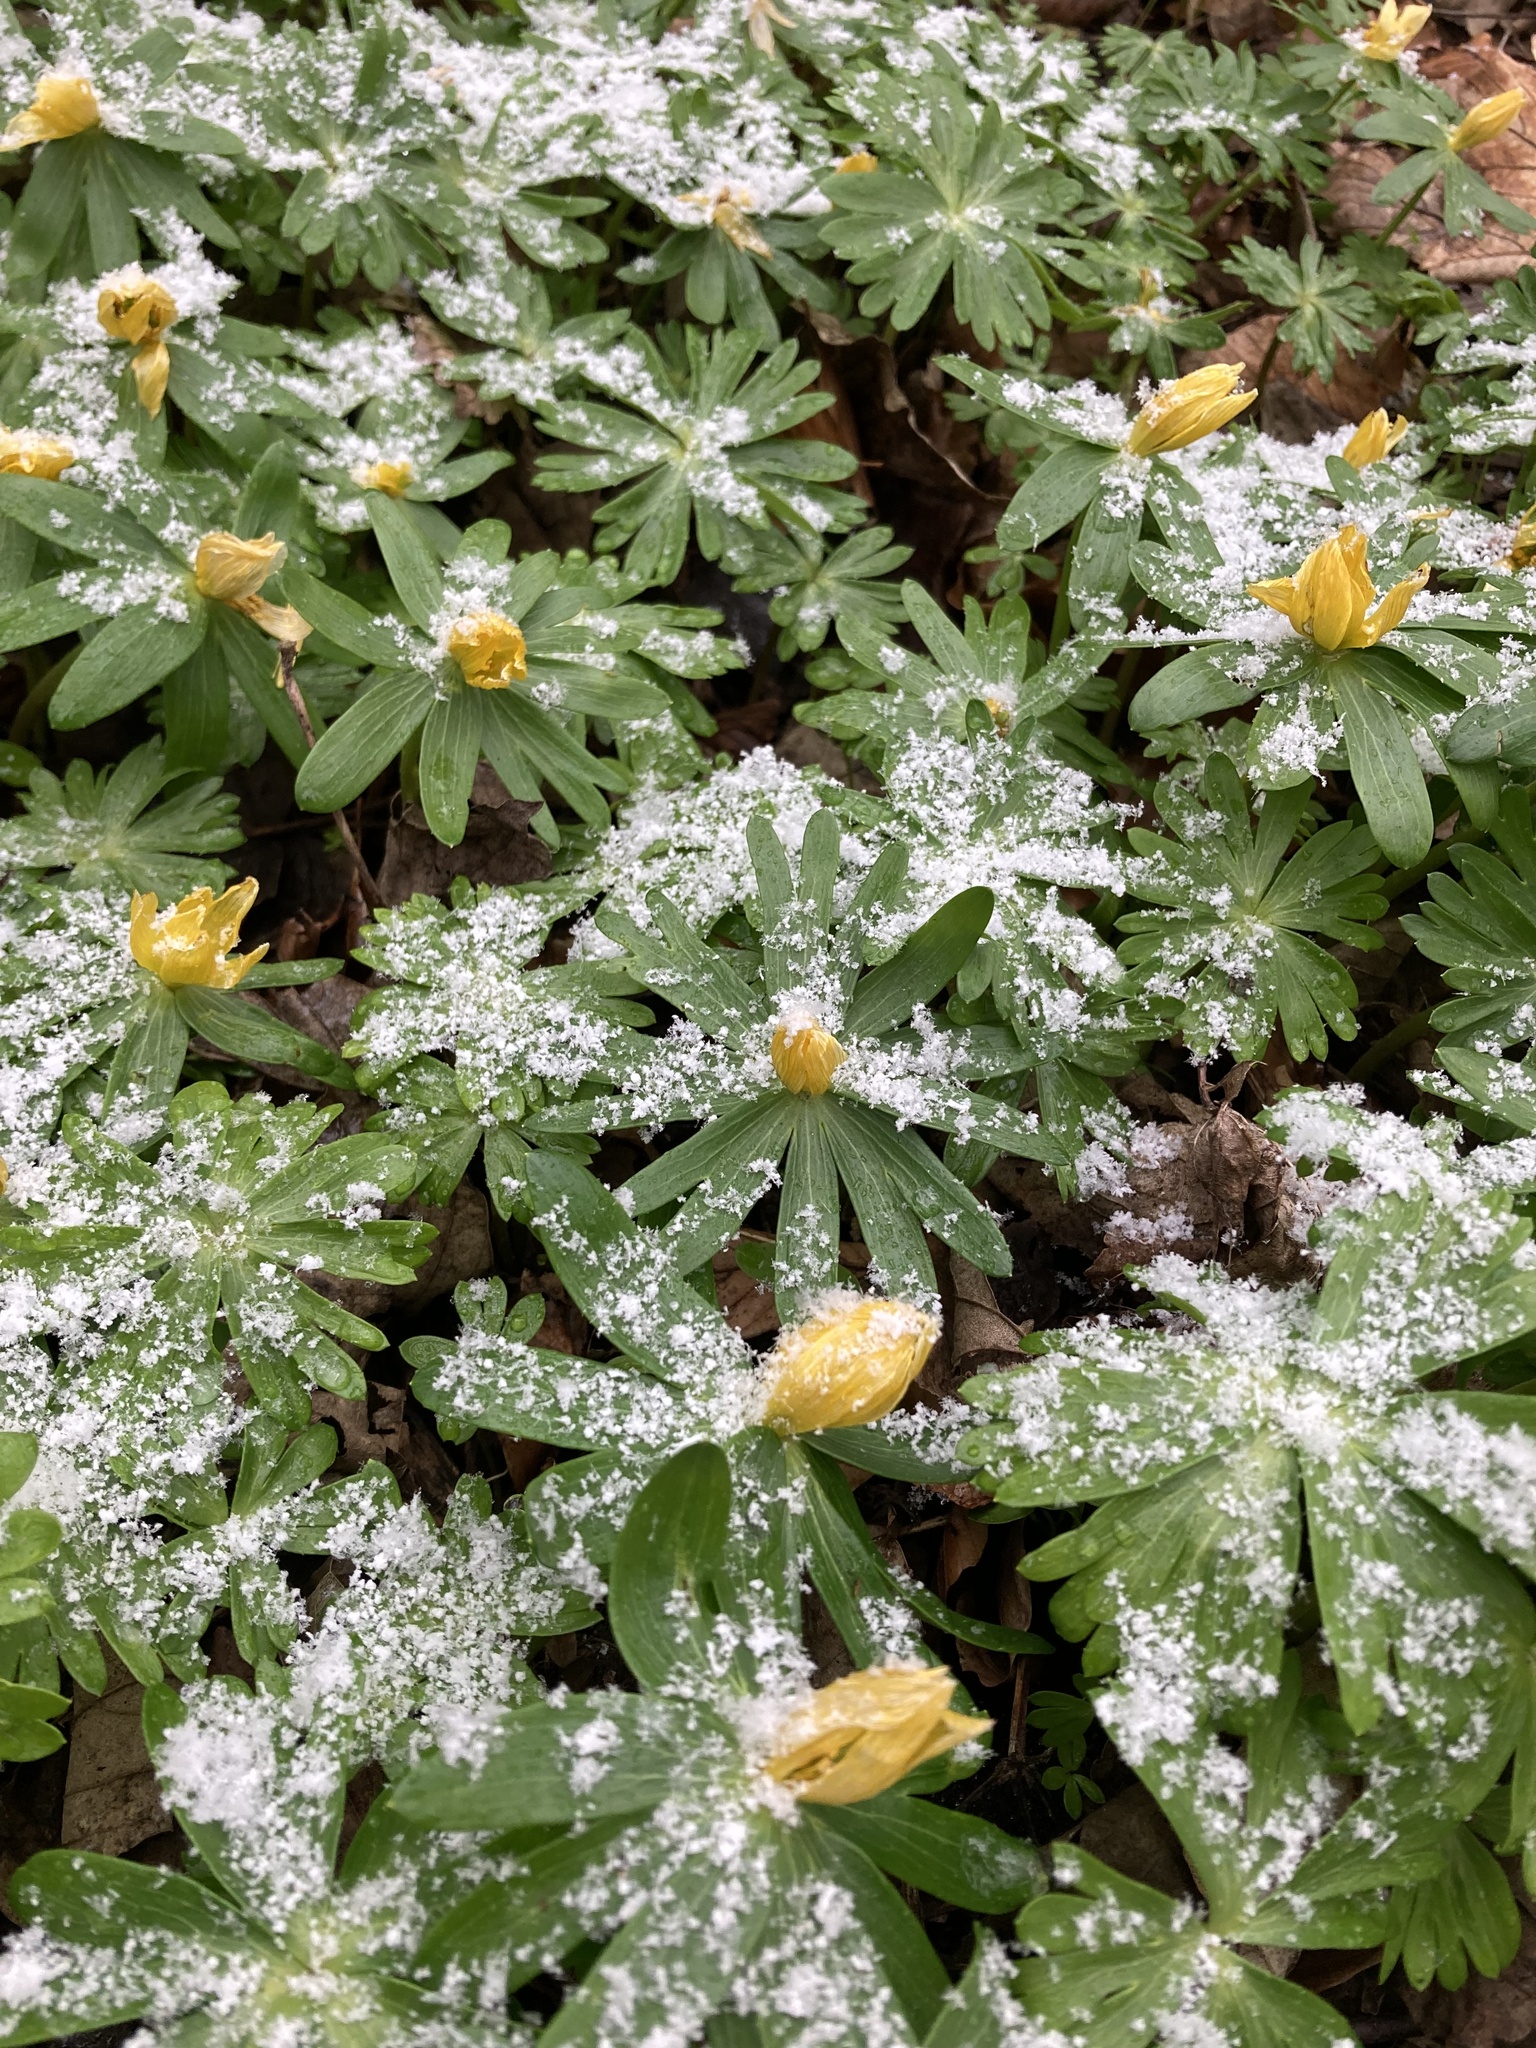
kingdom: Plantae
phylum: Tracheophyta
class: Magnoliopsida
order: Ranunculales
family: Ranunculaceae
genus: Eranthis
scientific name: Eranthis hyemalis
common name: Winter aconite
